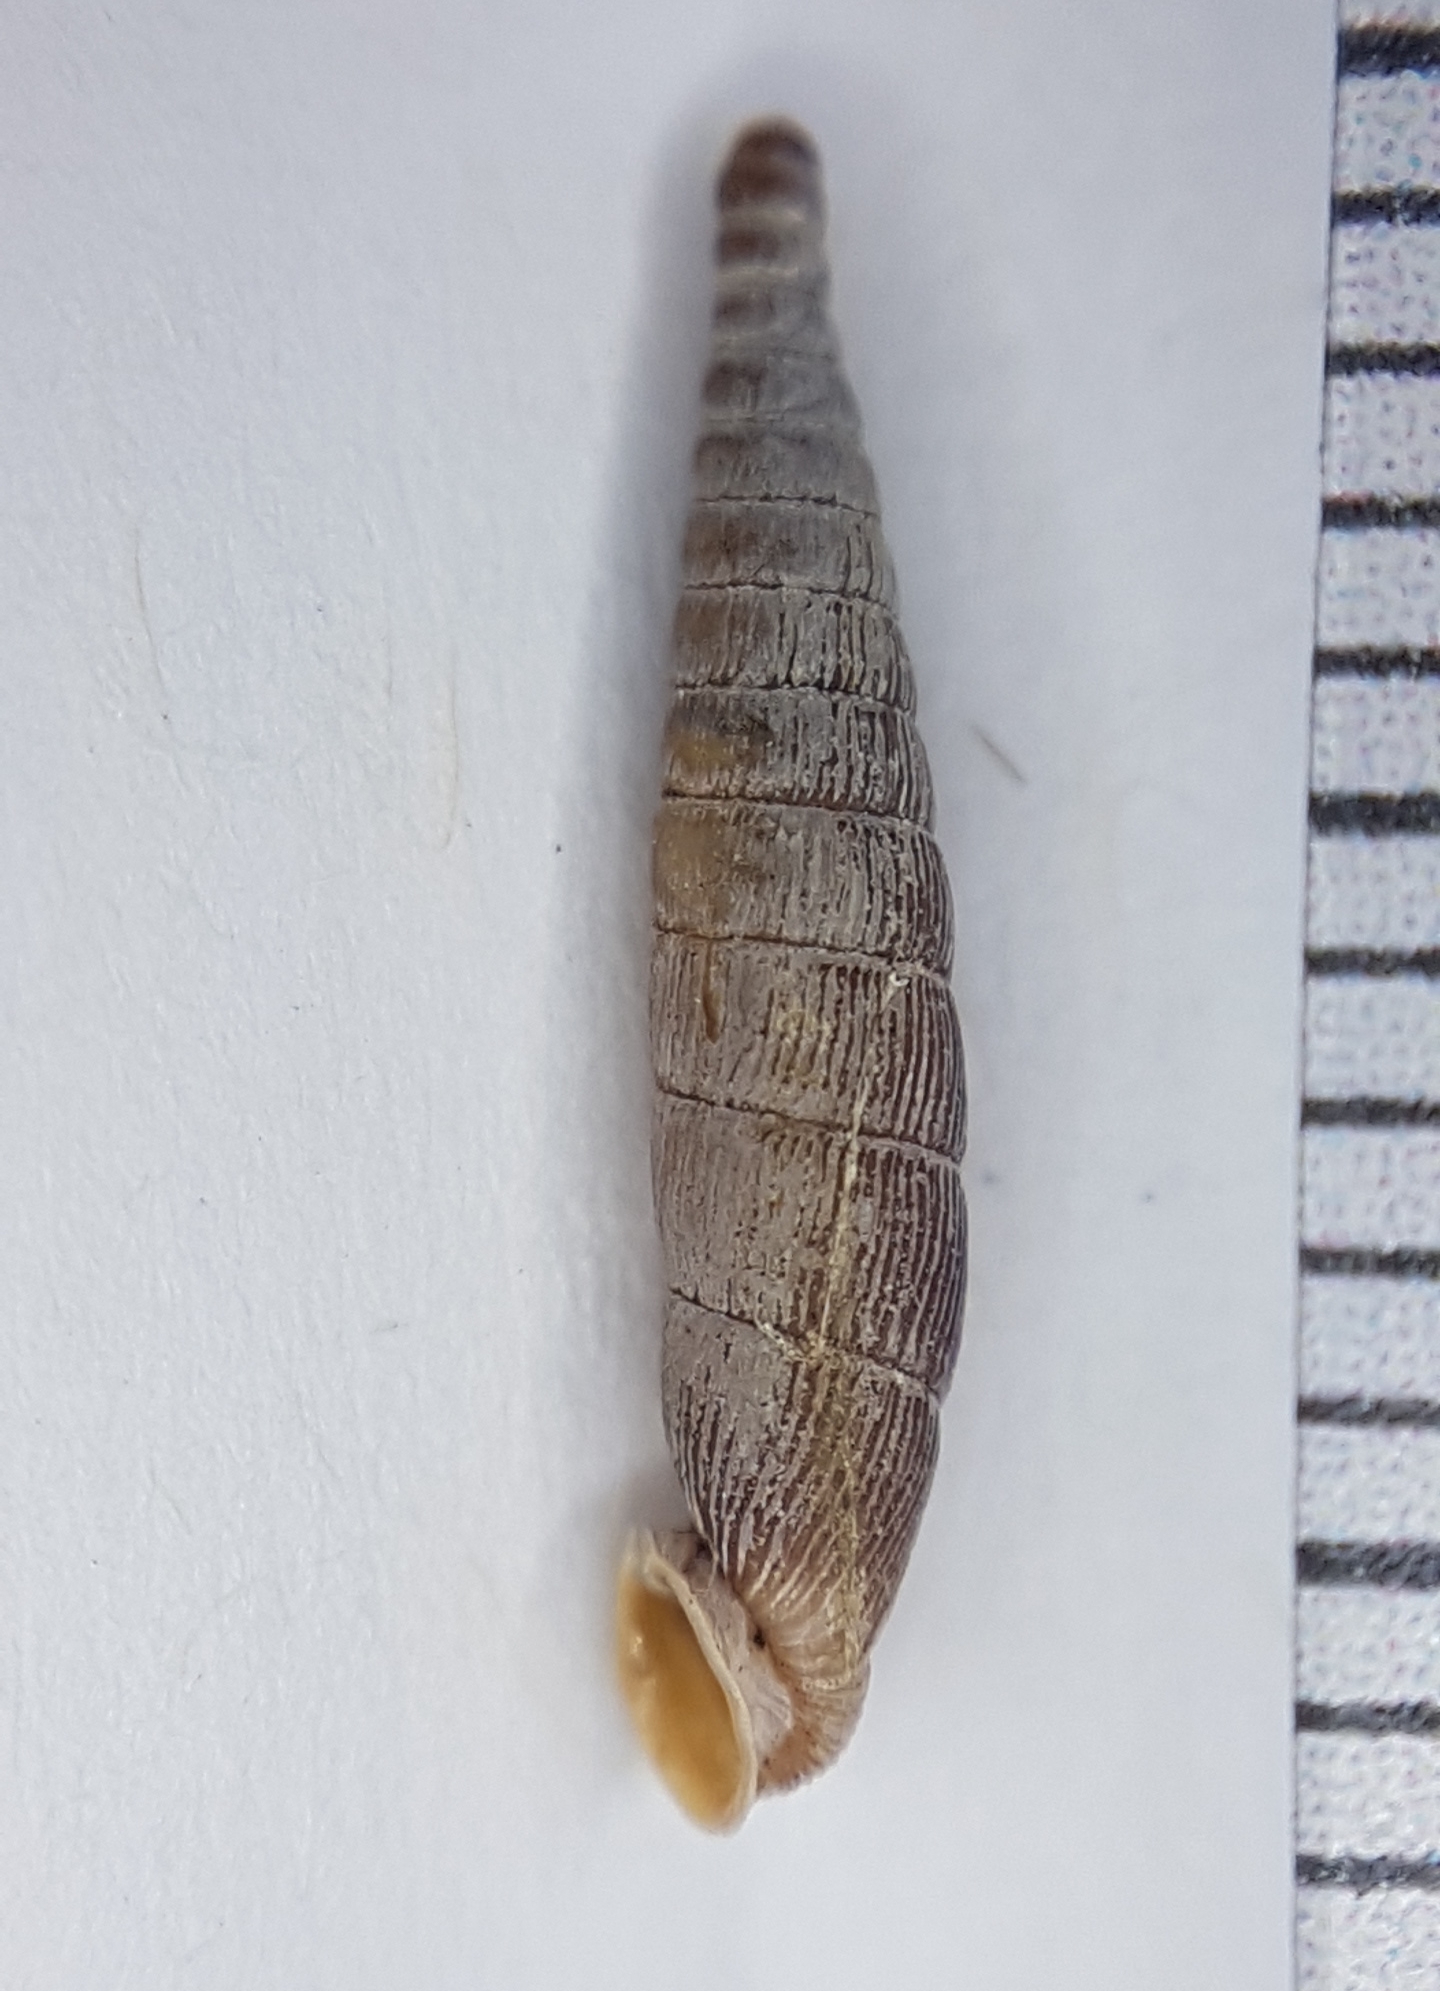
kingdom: Animalia
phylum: Mollusca
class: Gastropoda
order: Stylommatophora
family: Clausiliidae
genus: Clausilia
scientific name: Clausilia bidentata
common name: Two-toothed door snail
